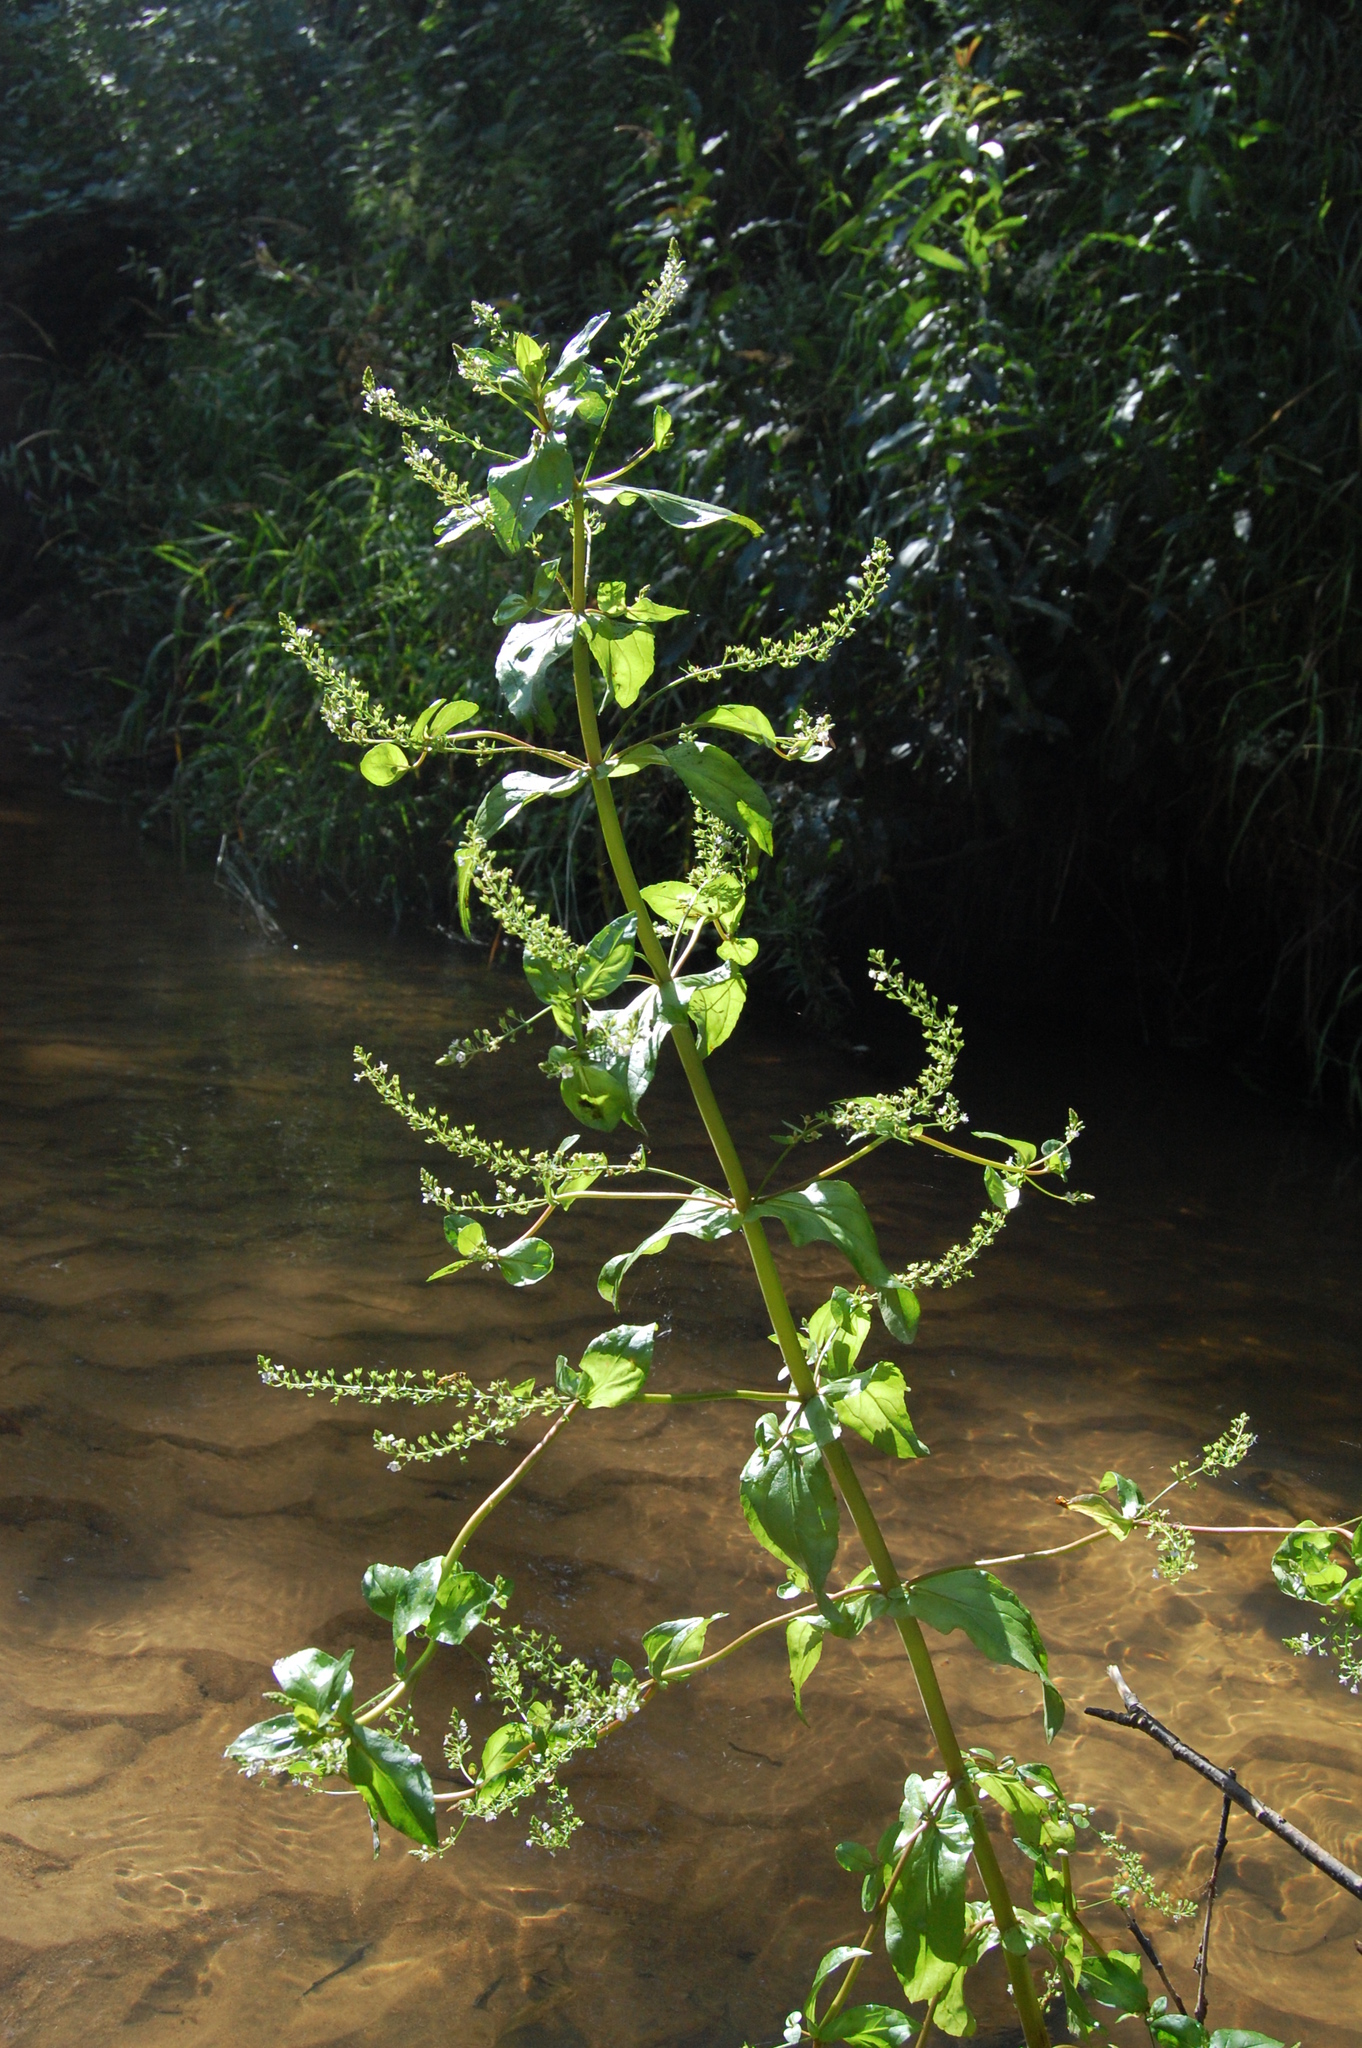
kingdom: Plantae
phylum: Tracheophyta
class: Magnoliopsida
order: Lamiales
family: Plantaginaceae
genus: Veronica
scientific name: Veronica anagallis-aquatica
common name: Water speedwell
